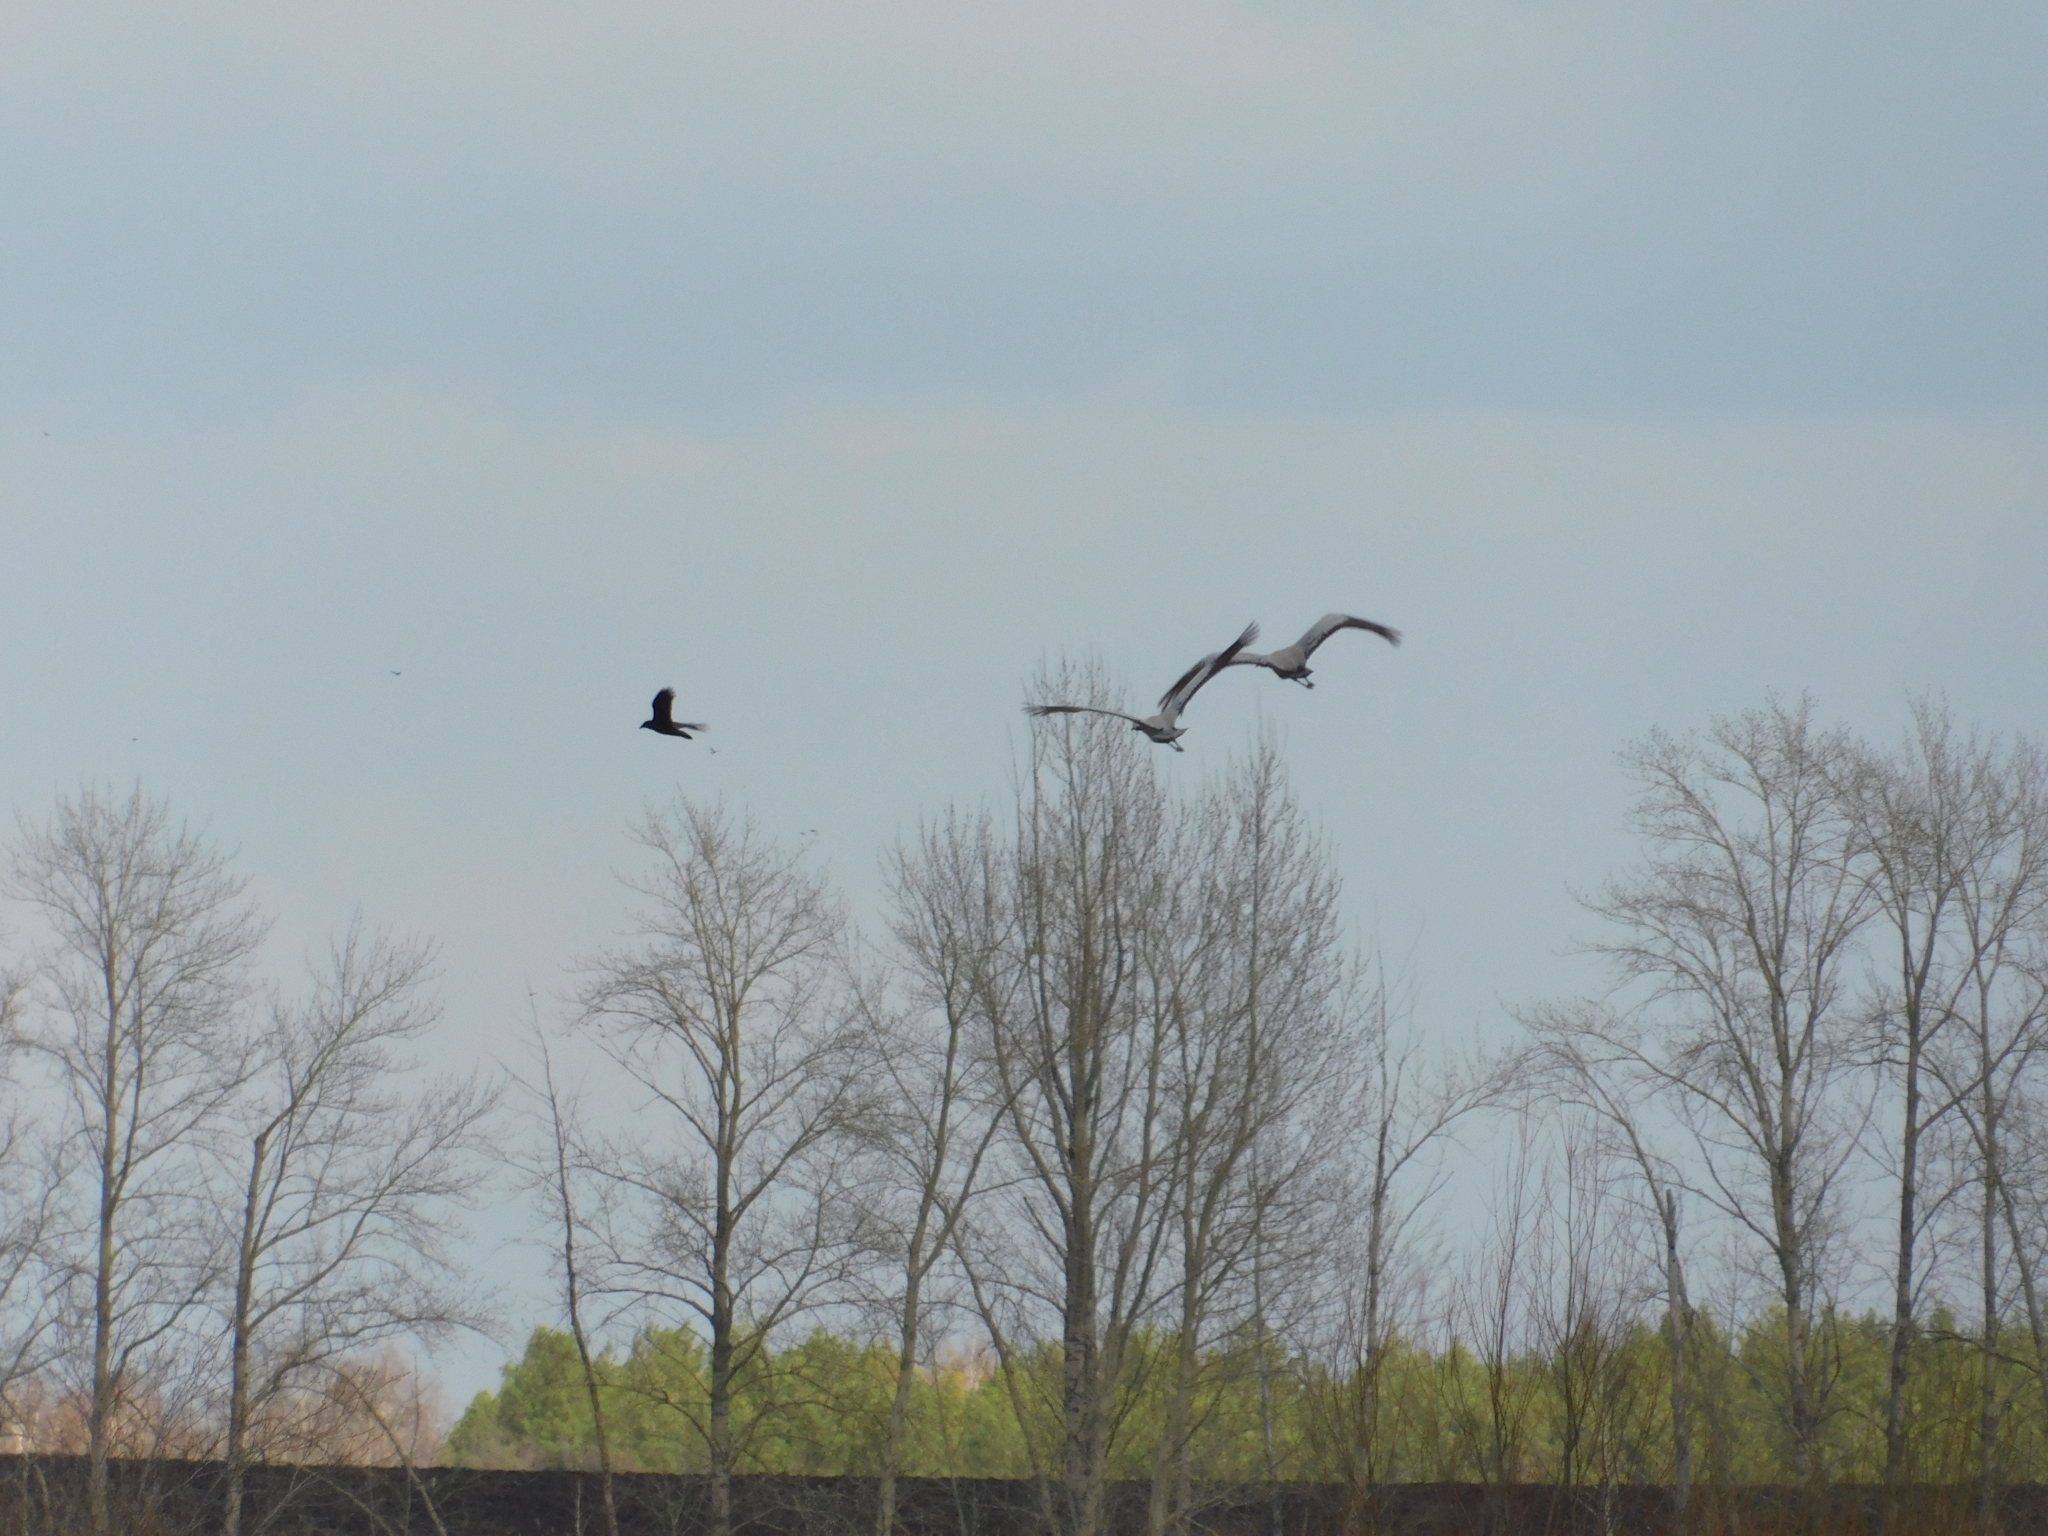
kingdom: Animalia
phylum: Chordata
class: Aves
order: Passeriformes
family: Corvidae
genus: Corvus
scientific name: Corvus corax
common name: Common raven
